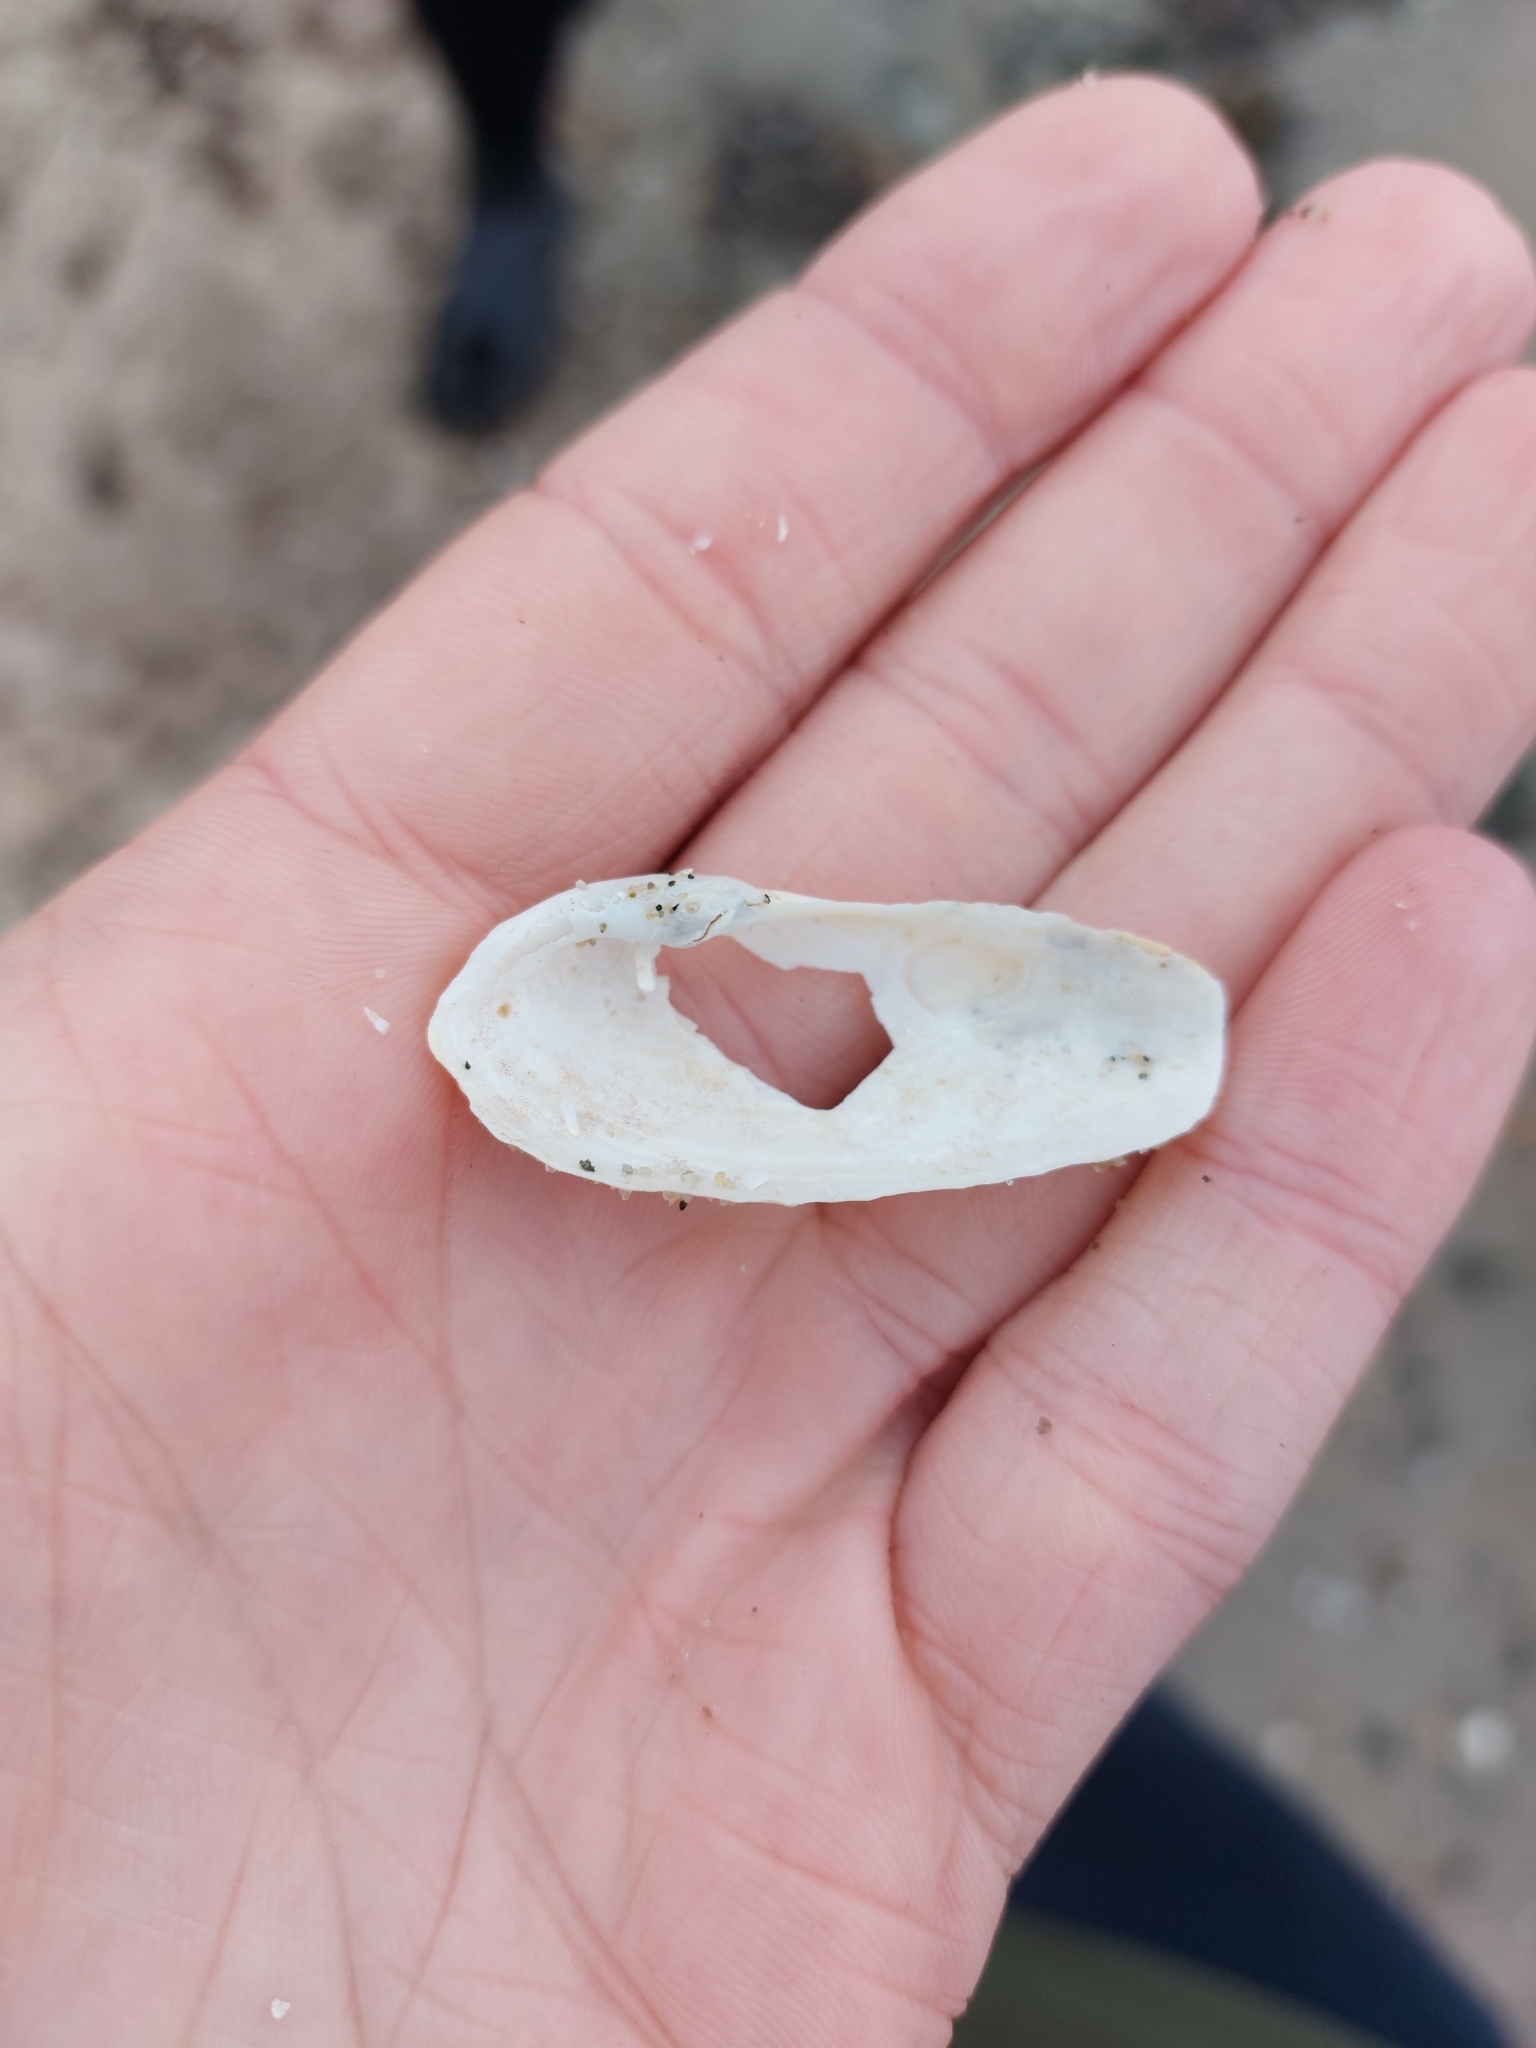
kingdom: Animalia
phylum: Mollusca
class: Bivalvia
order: Myida
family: Pholadidae
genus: Barnea
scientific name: Barnea candida
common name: White piddock
